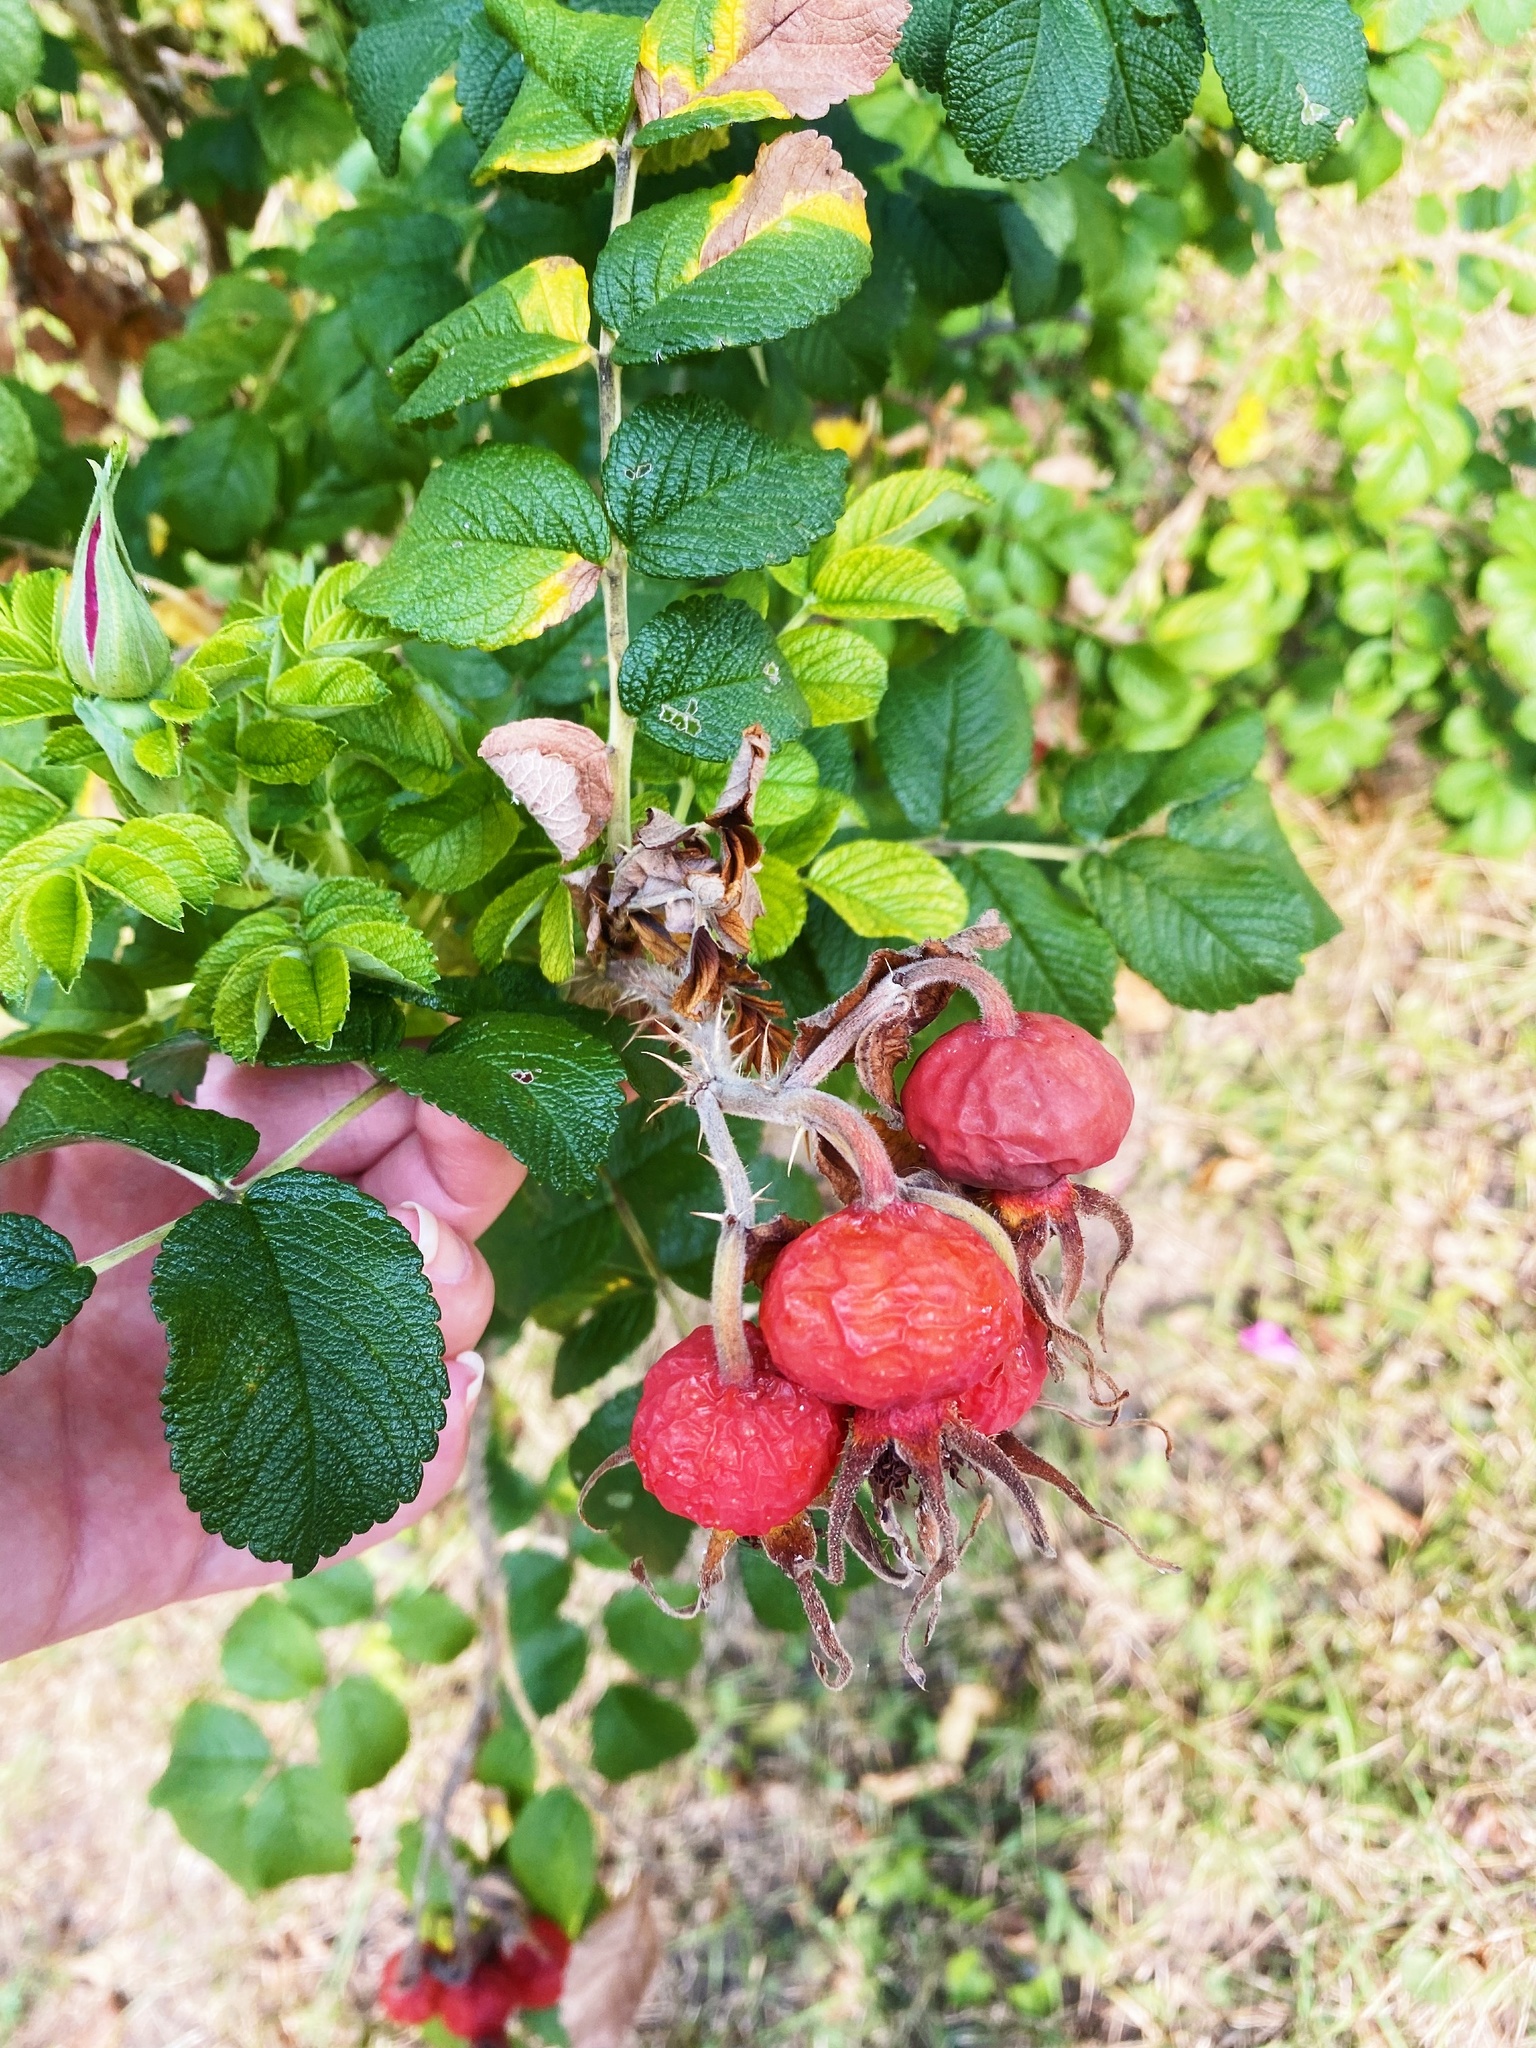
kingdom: Plantae
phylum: Tracheophyta
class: Magnoliopsida
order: Rosales
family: Rosaceae
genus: Rosa
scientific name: Rosa rugosa
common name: Japanese rose
